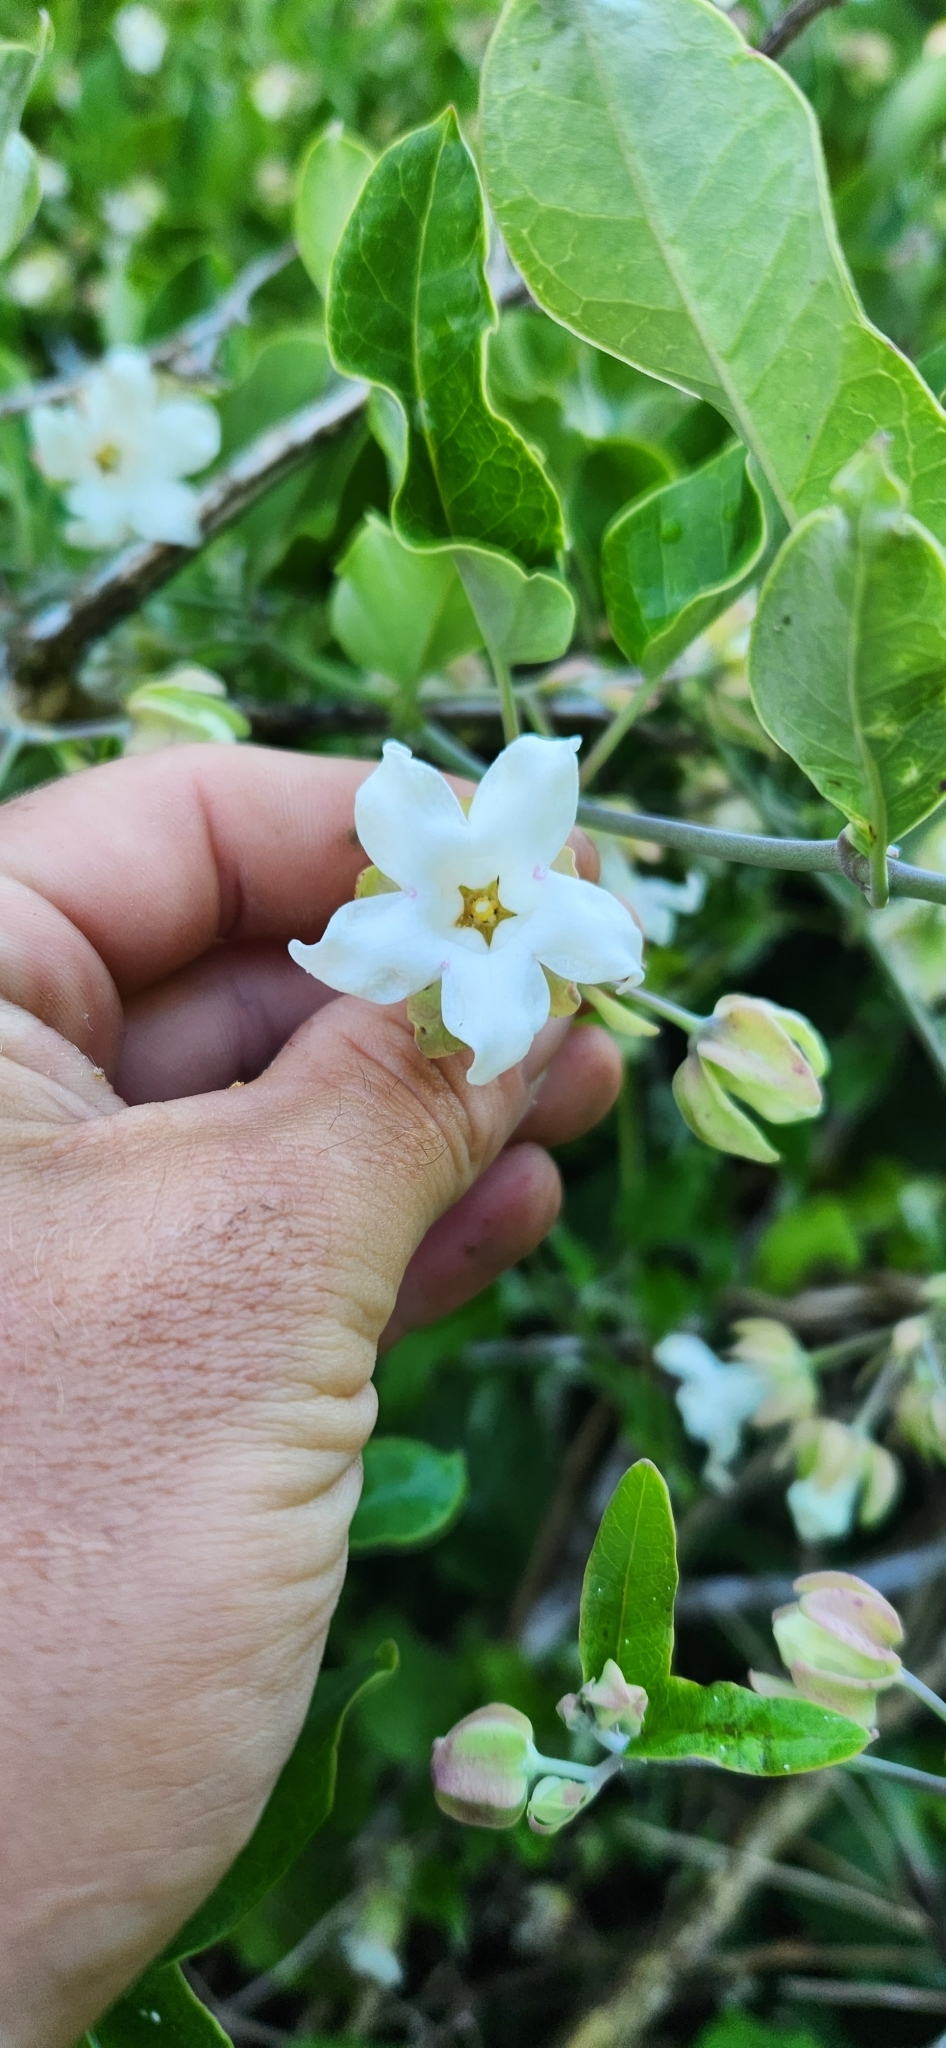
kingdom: Plantae
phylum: Tracheophyta
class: Magnoliopsida
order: Gentianales
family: Apocynaceae
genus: Araujia
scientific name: Araujia sericifera
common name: White bladderflower
